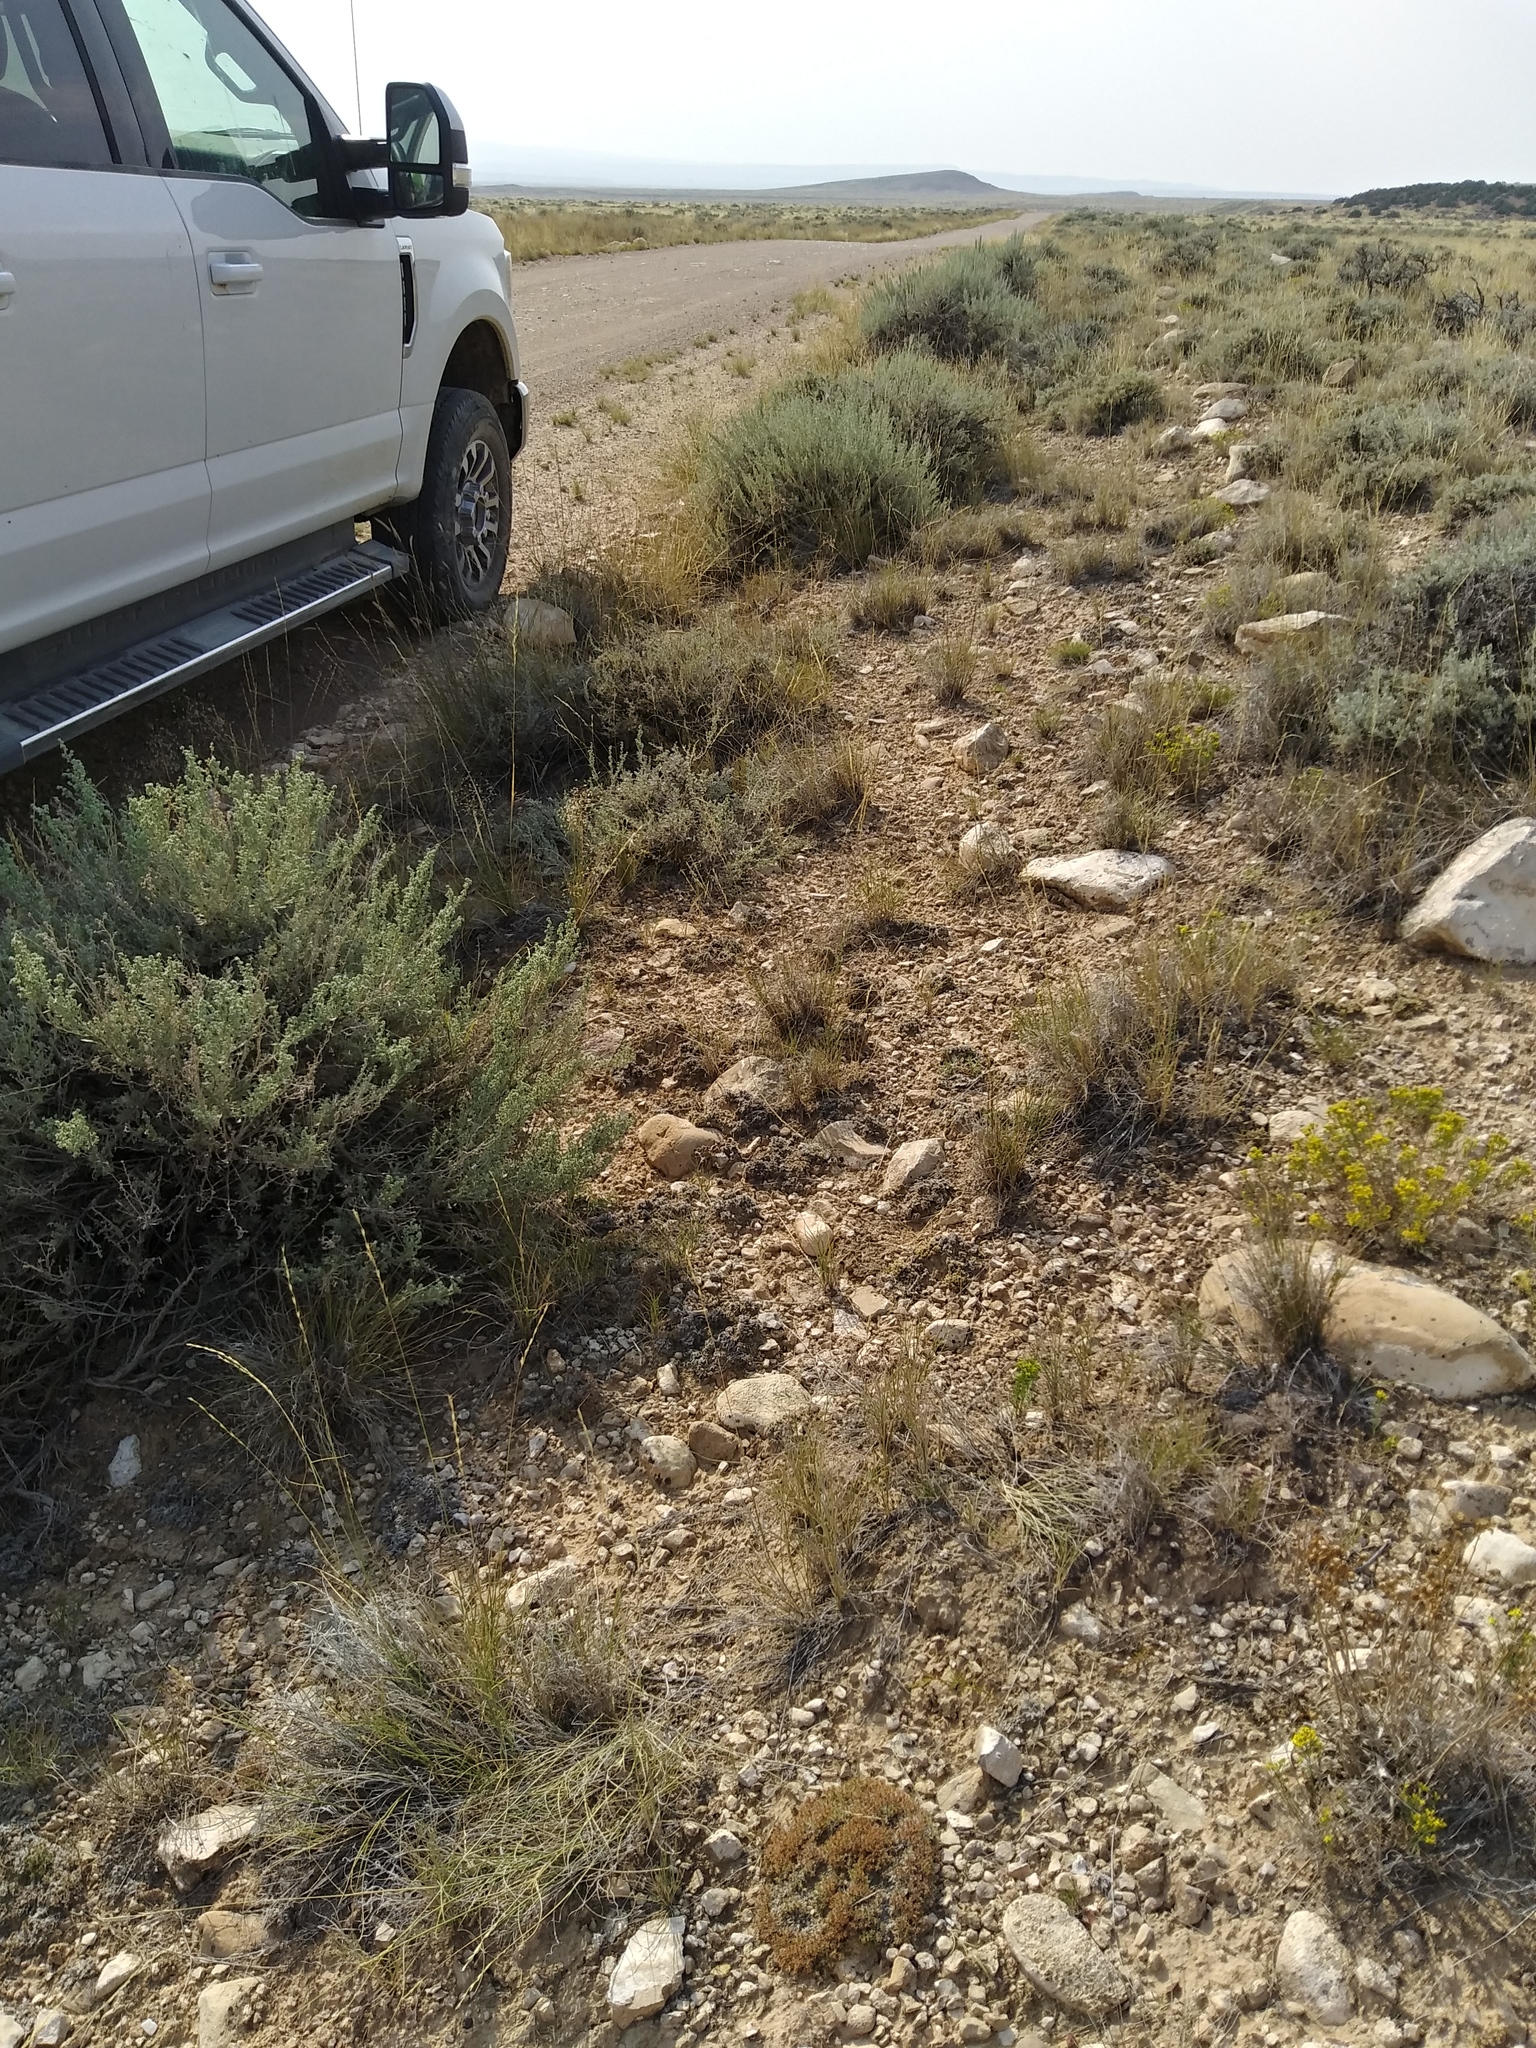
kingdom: Plantae
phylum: Tracheophyta
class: Magnoliopsida
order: Caryophyllales
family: Caryophyllaceae
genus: Paronychia
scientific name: Paronychia sessiliflora
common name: Creeping nailwort
